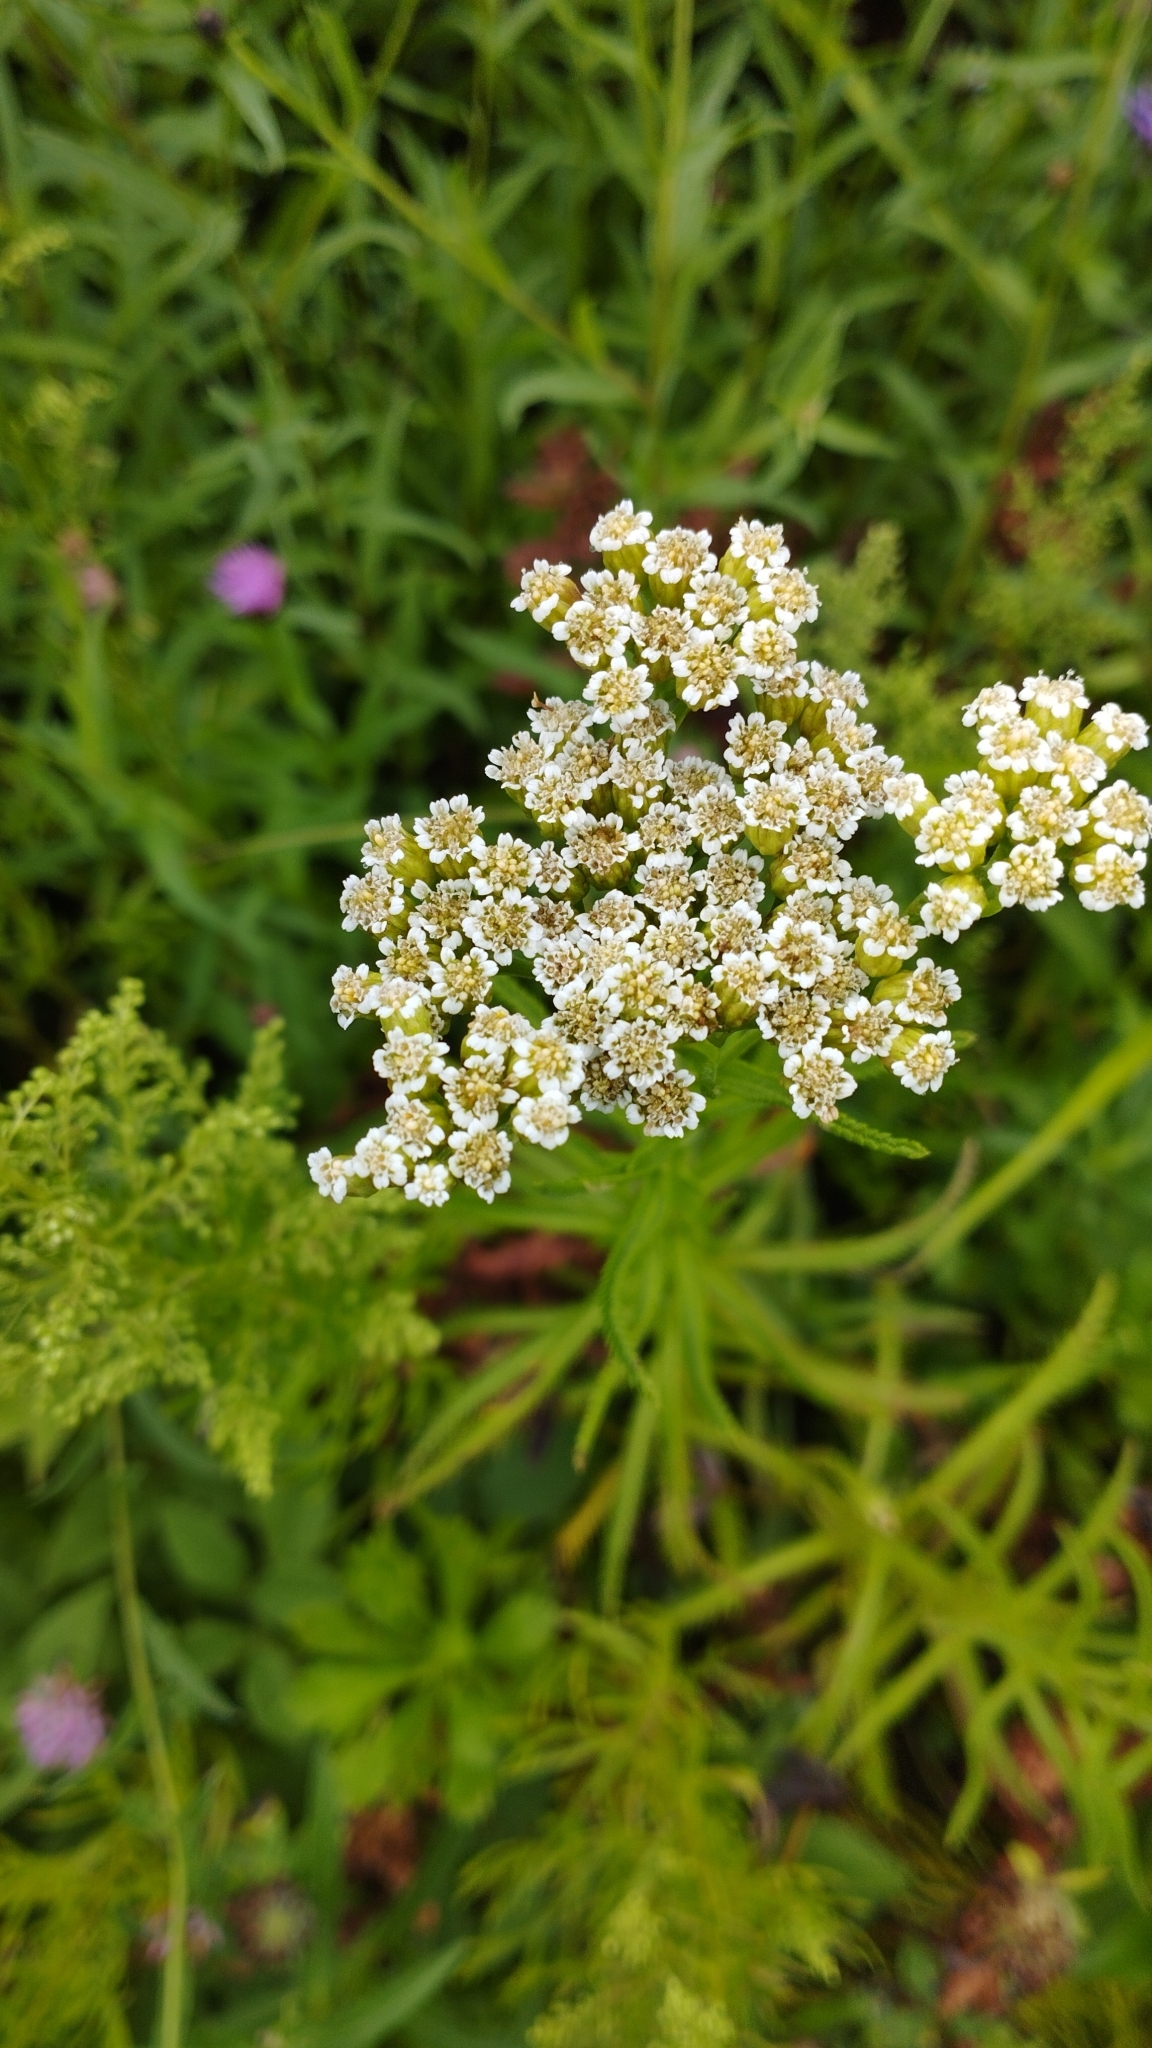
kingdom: Plantae
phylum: Tracheophyta
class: Magnoliopsida
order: Asterales
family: Asteraceae
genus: Achillea
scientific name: Achillea ptarmicoides
